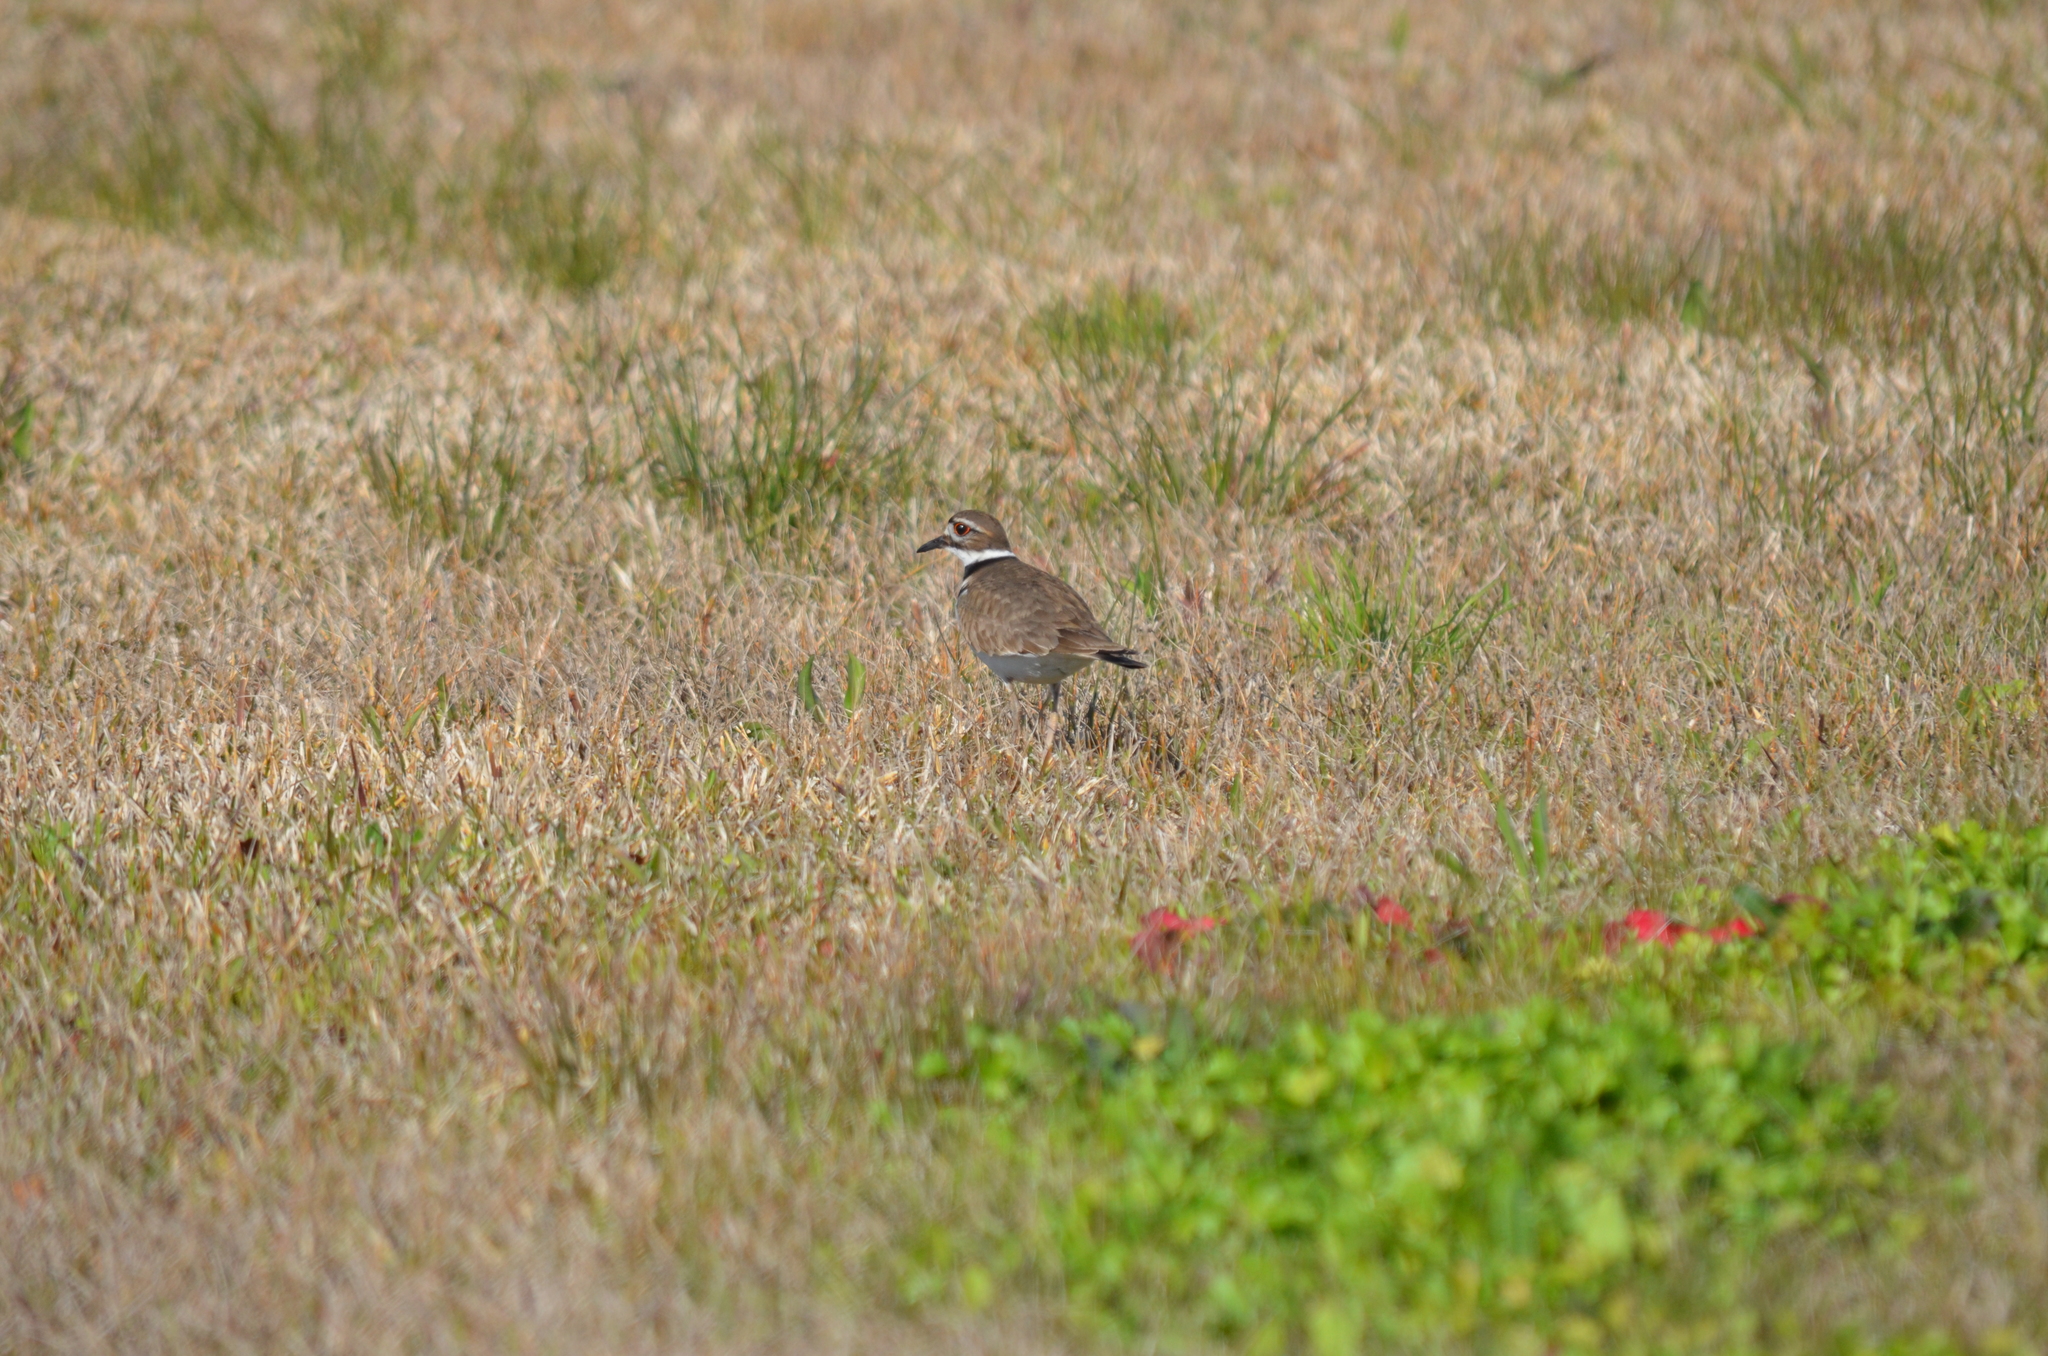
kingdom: Animalia
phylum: Chordata
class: Aves
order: Charadriiformes
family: Charadriidae
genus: Charadrius
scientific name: Charadrius vociferus
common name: Killdeer
